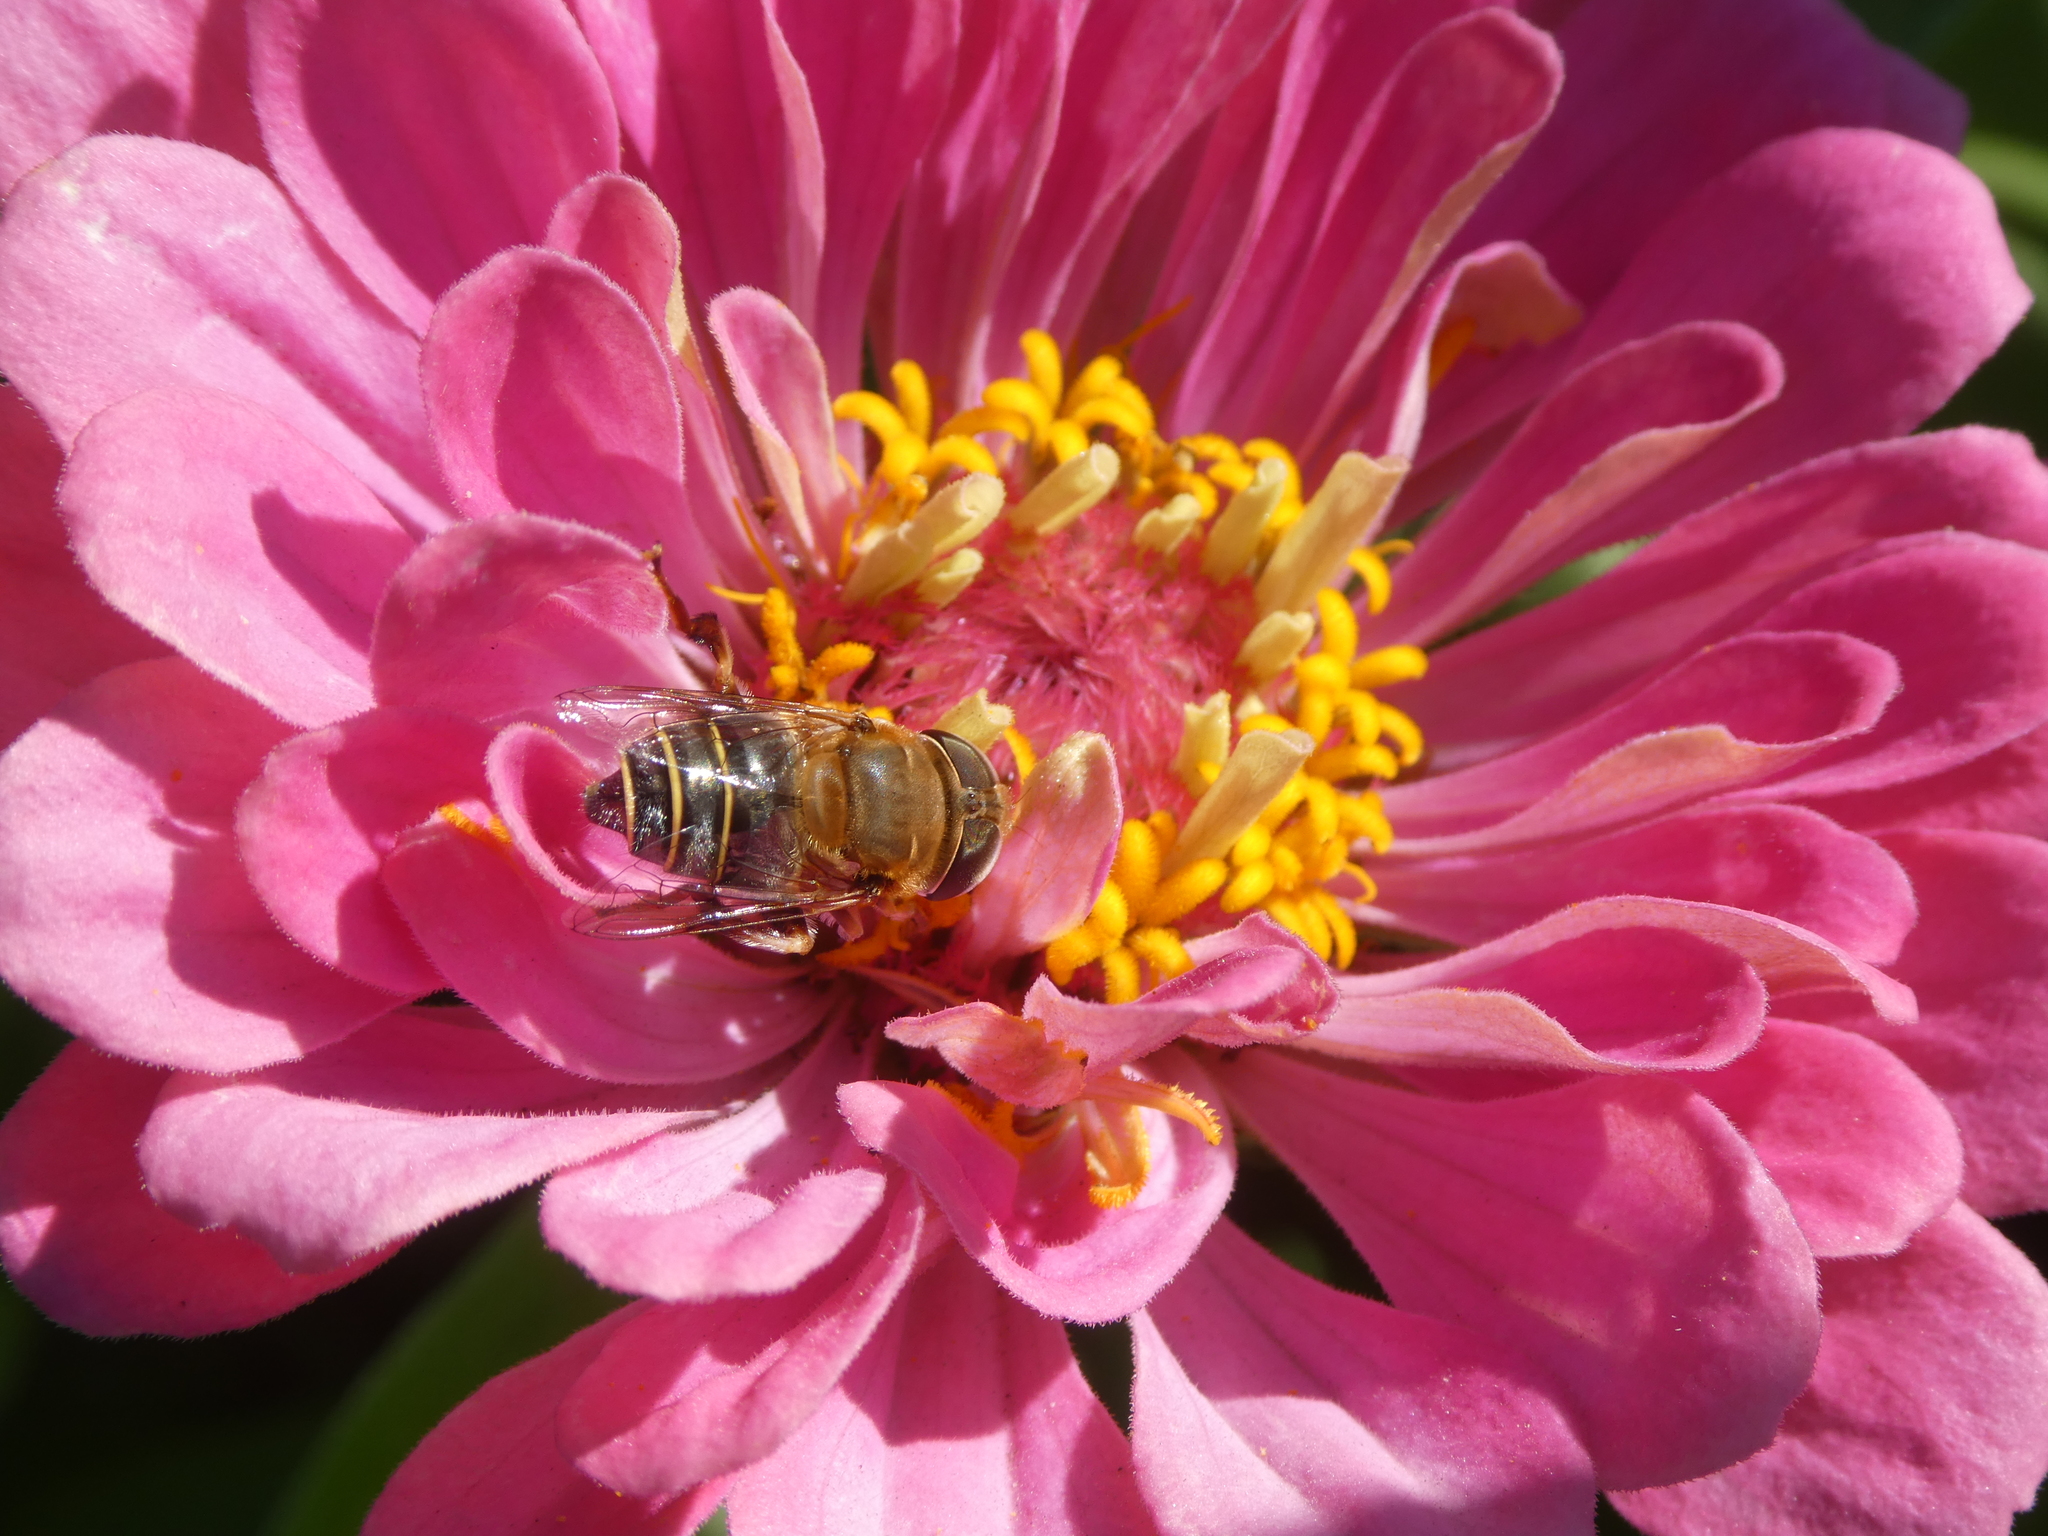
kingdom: Animalia
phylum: Arthropoda
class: Insecta
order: Diptera
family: Syrphidae
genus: Palpada
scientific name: Palpada mexicana
